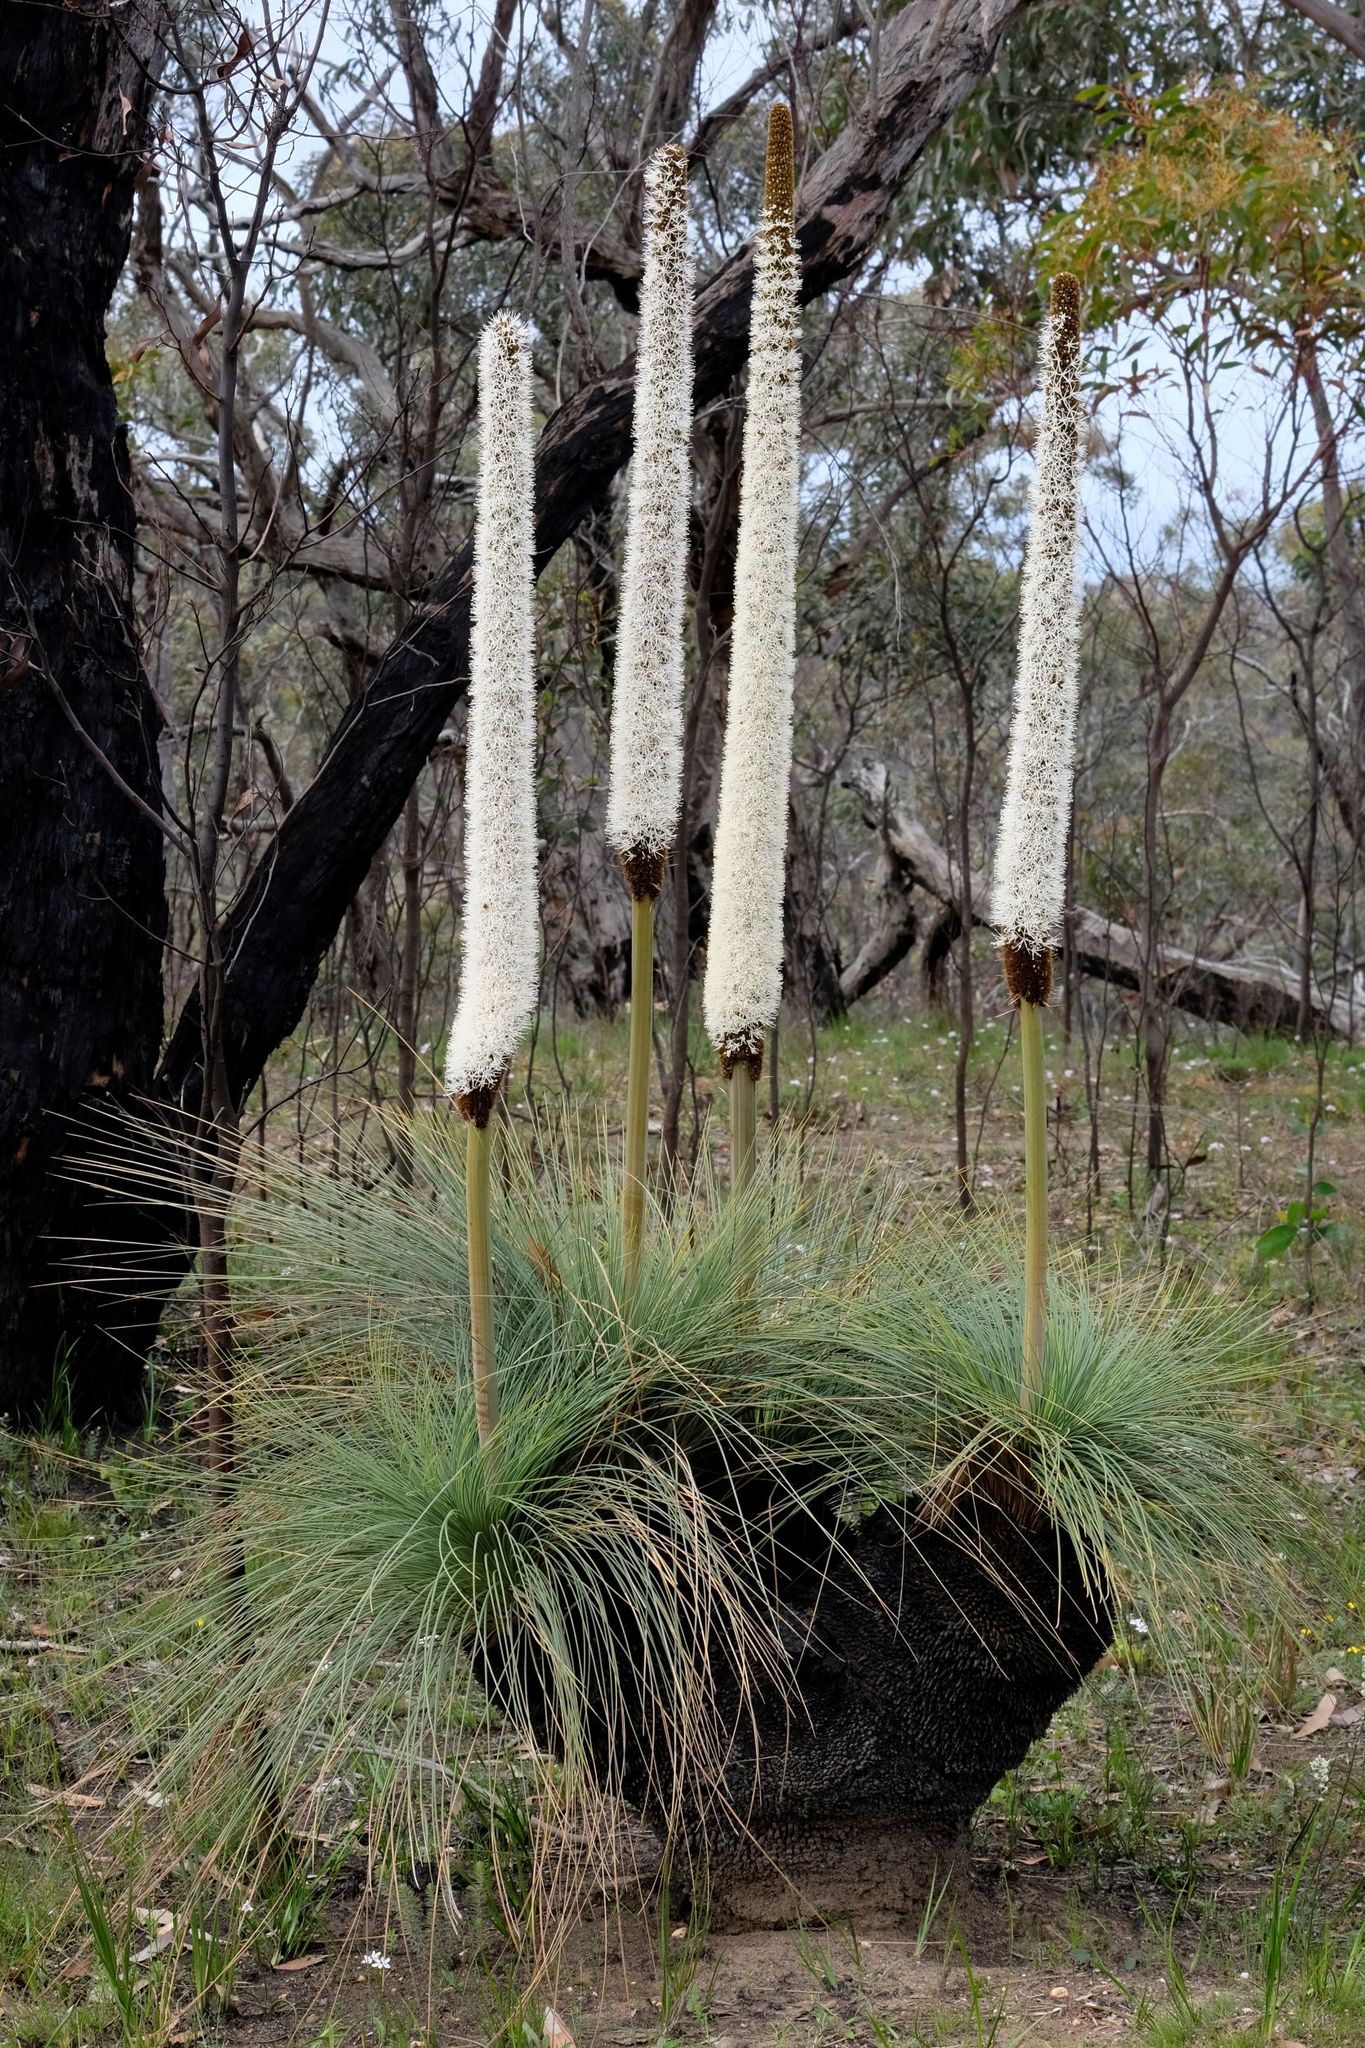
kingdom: Plantae
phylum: Tracheophyta
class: Liliopsida
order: Asparagales
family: Asphodelaceae
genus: Xanthorrhoea
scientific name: Xanthorrhoea australis
